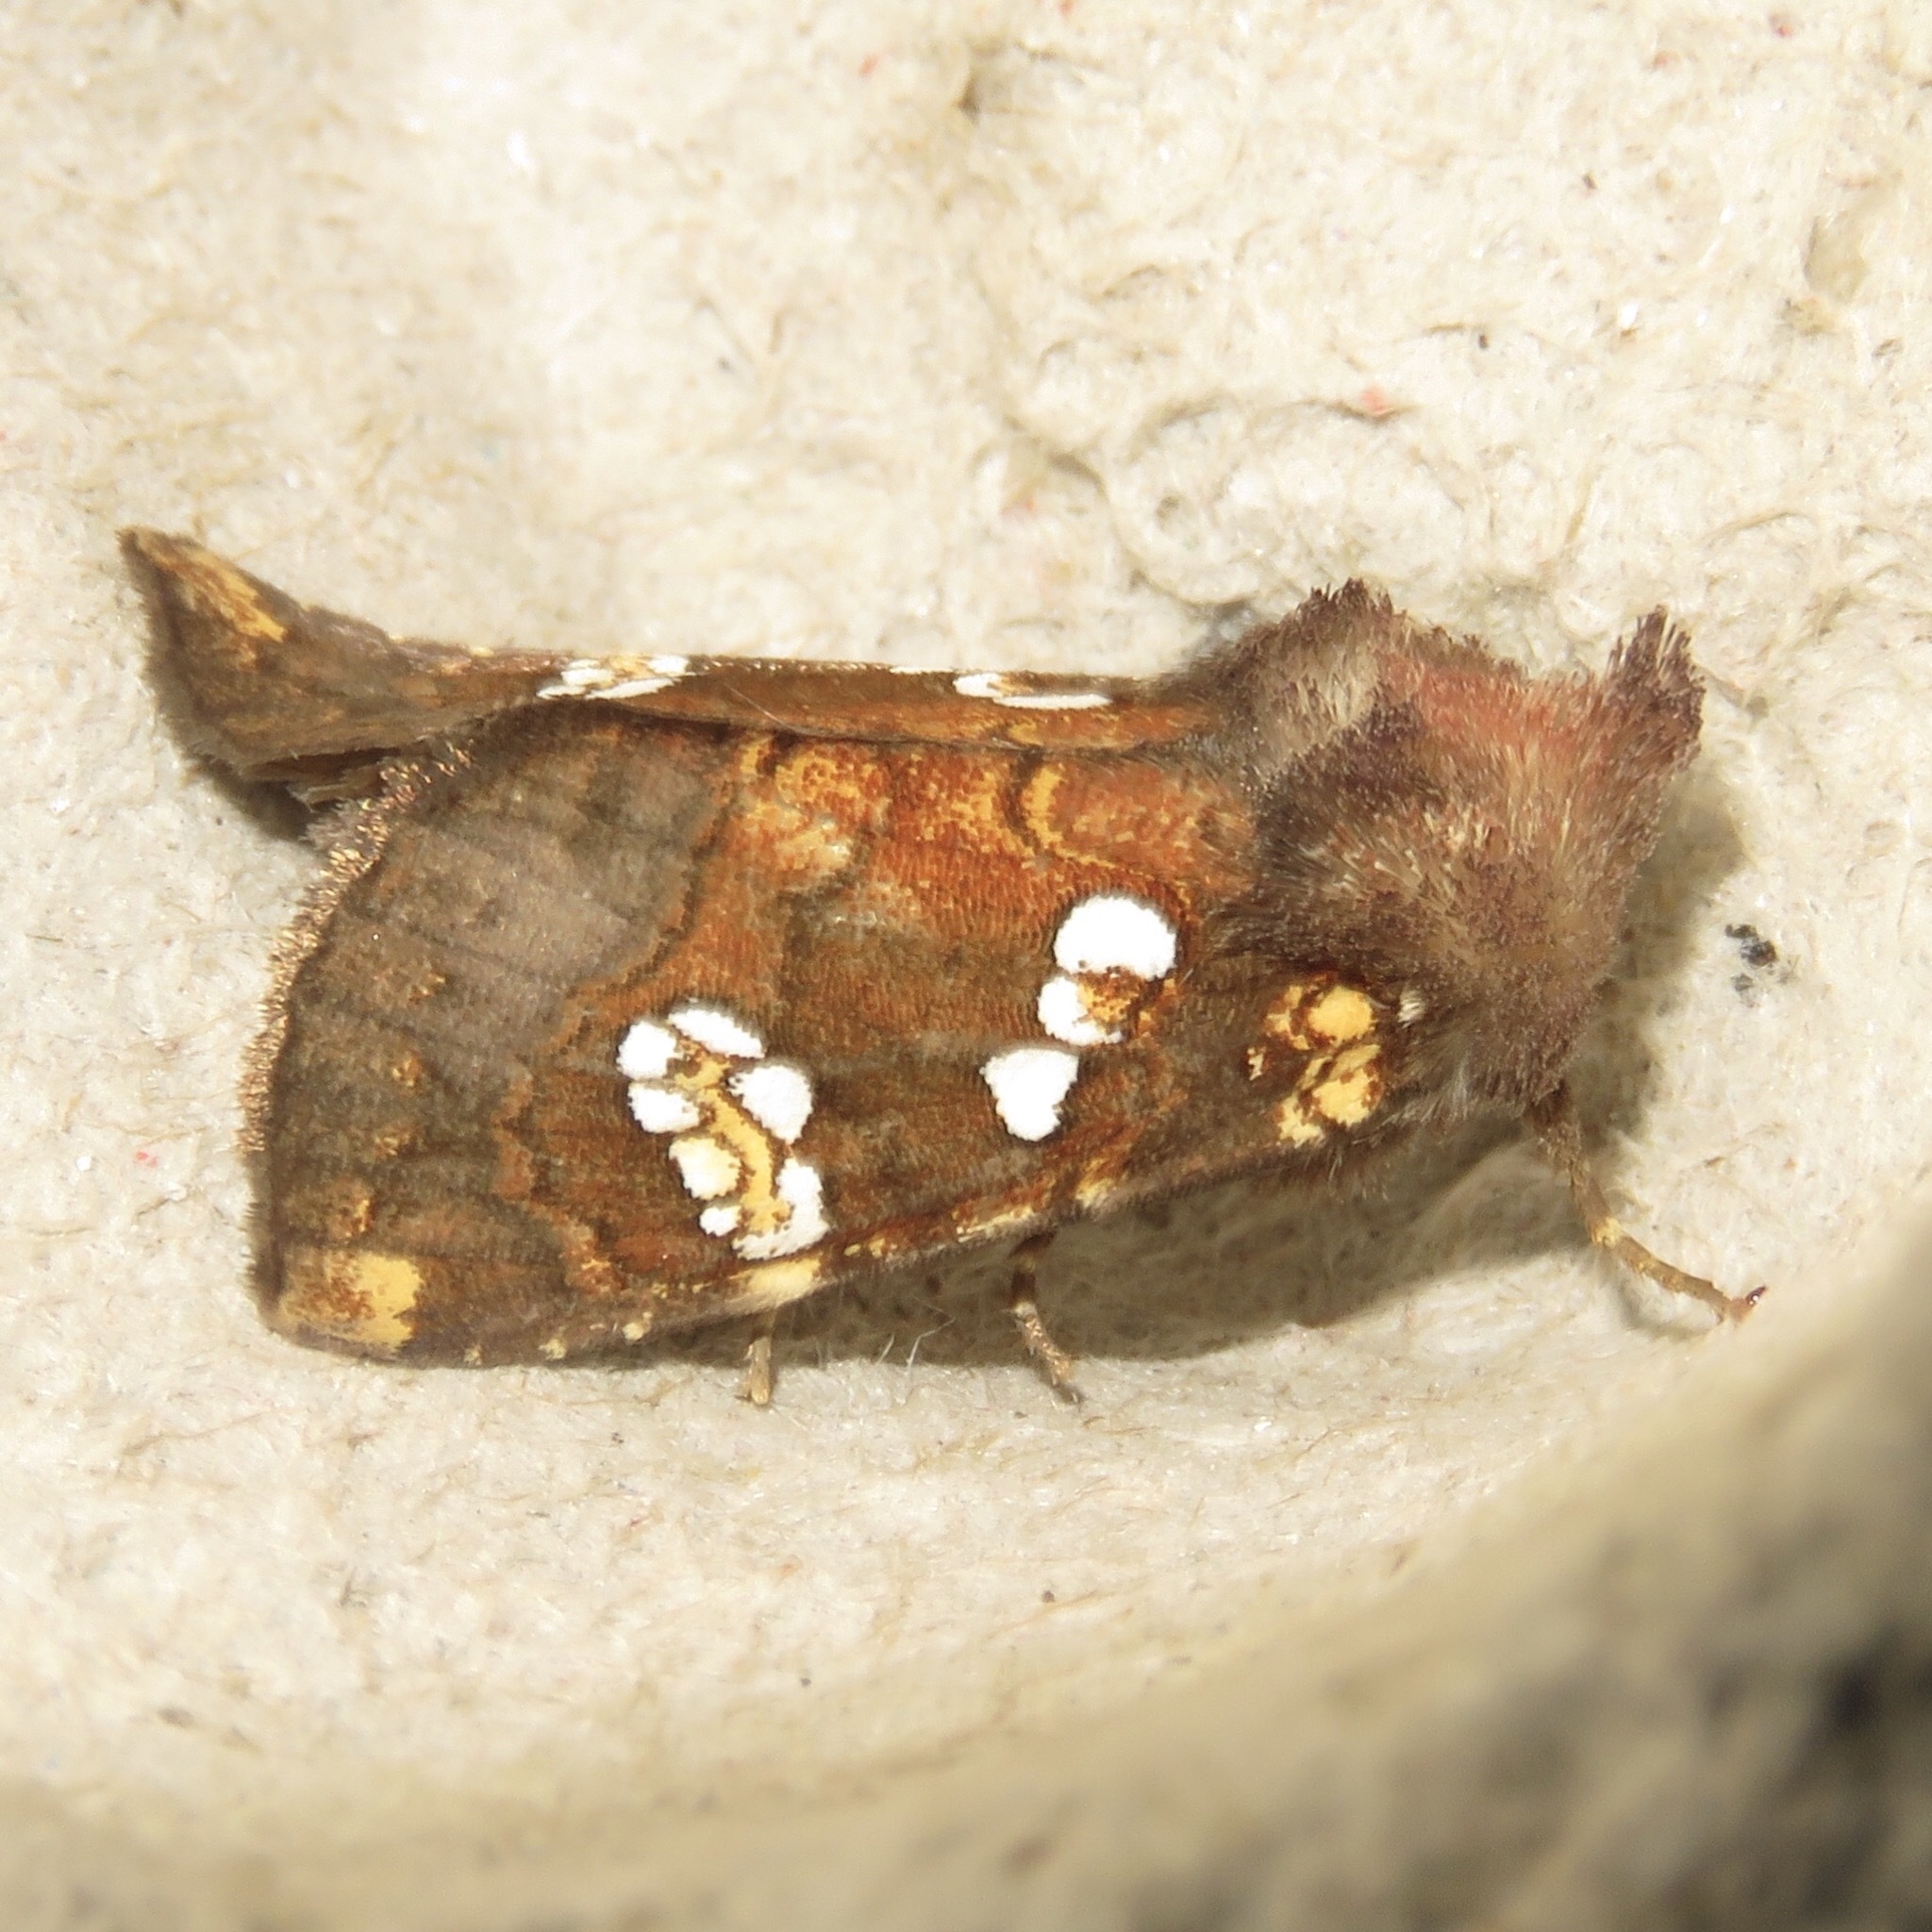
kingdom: Animalia
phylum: Arthropoda
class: Insecta
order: Lepidoptera
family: Noctuidae
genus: Papaipema
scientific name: Papaipema nepheleptena
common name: Turtle head borer moth
